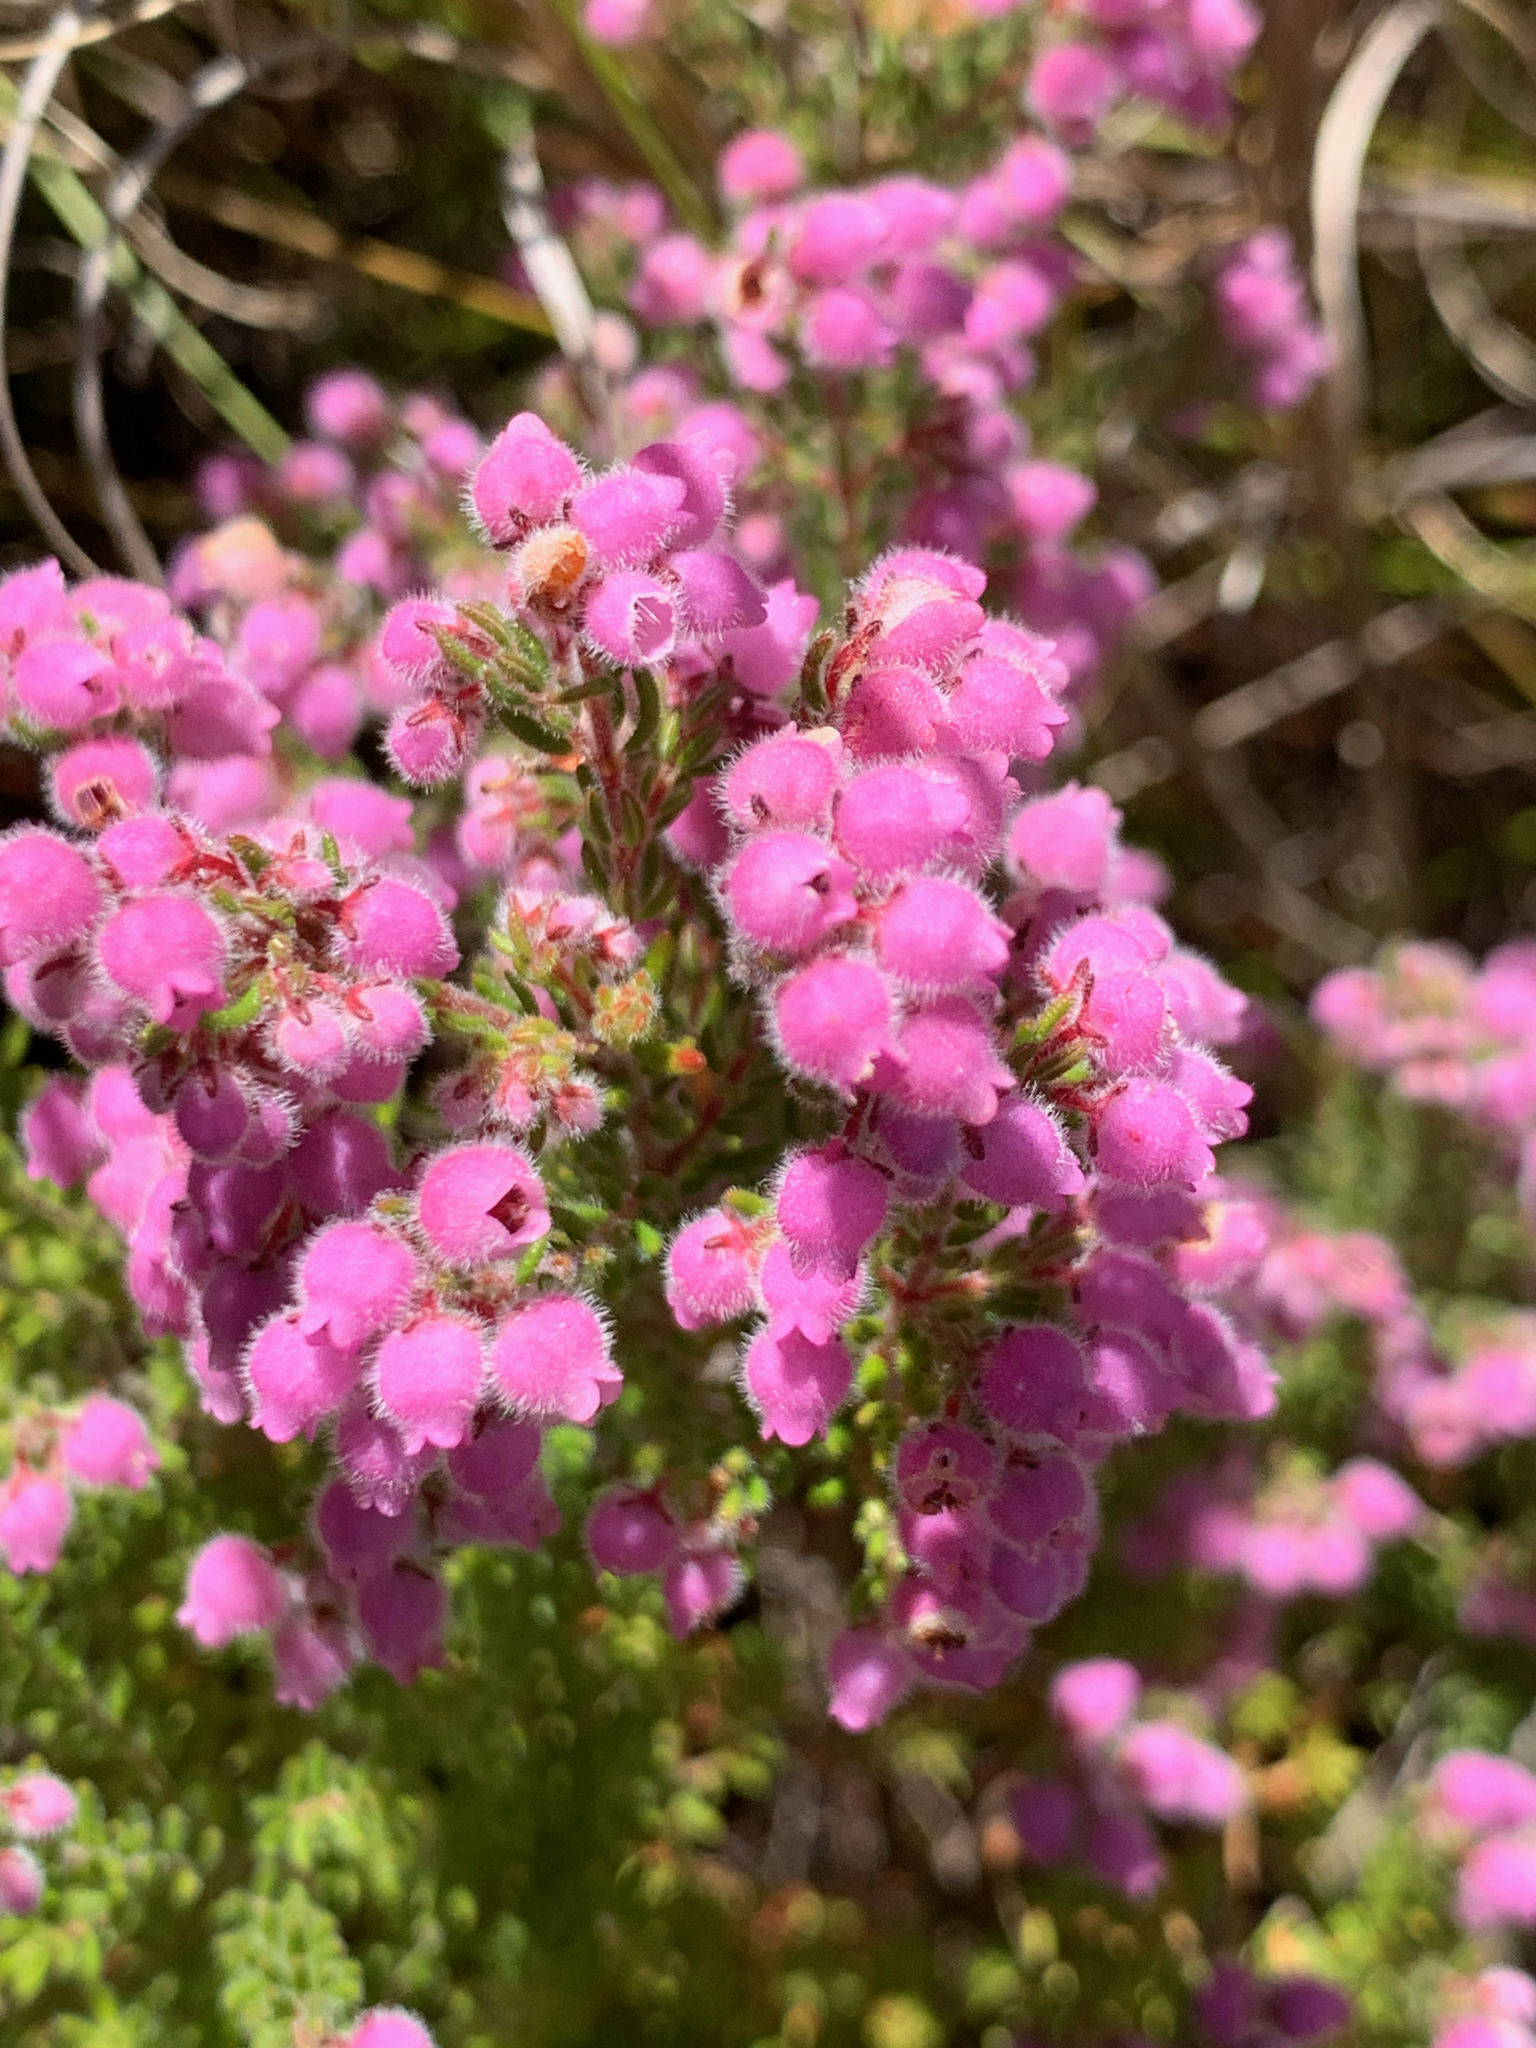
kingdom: Plantae
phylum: Tracheophyta
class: Magnoliopsida
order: Ericales
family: Ericaceae
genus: Erica
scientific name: Erica hirtiflora
